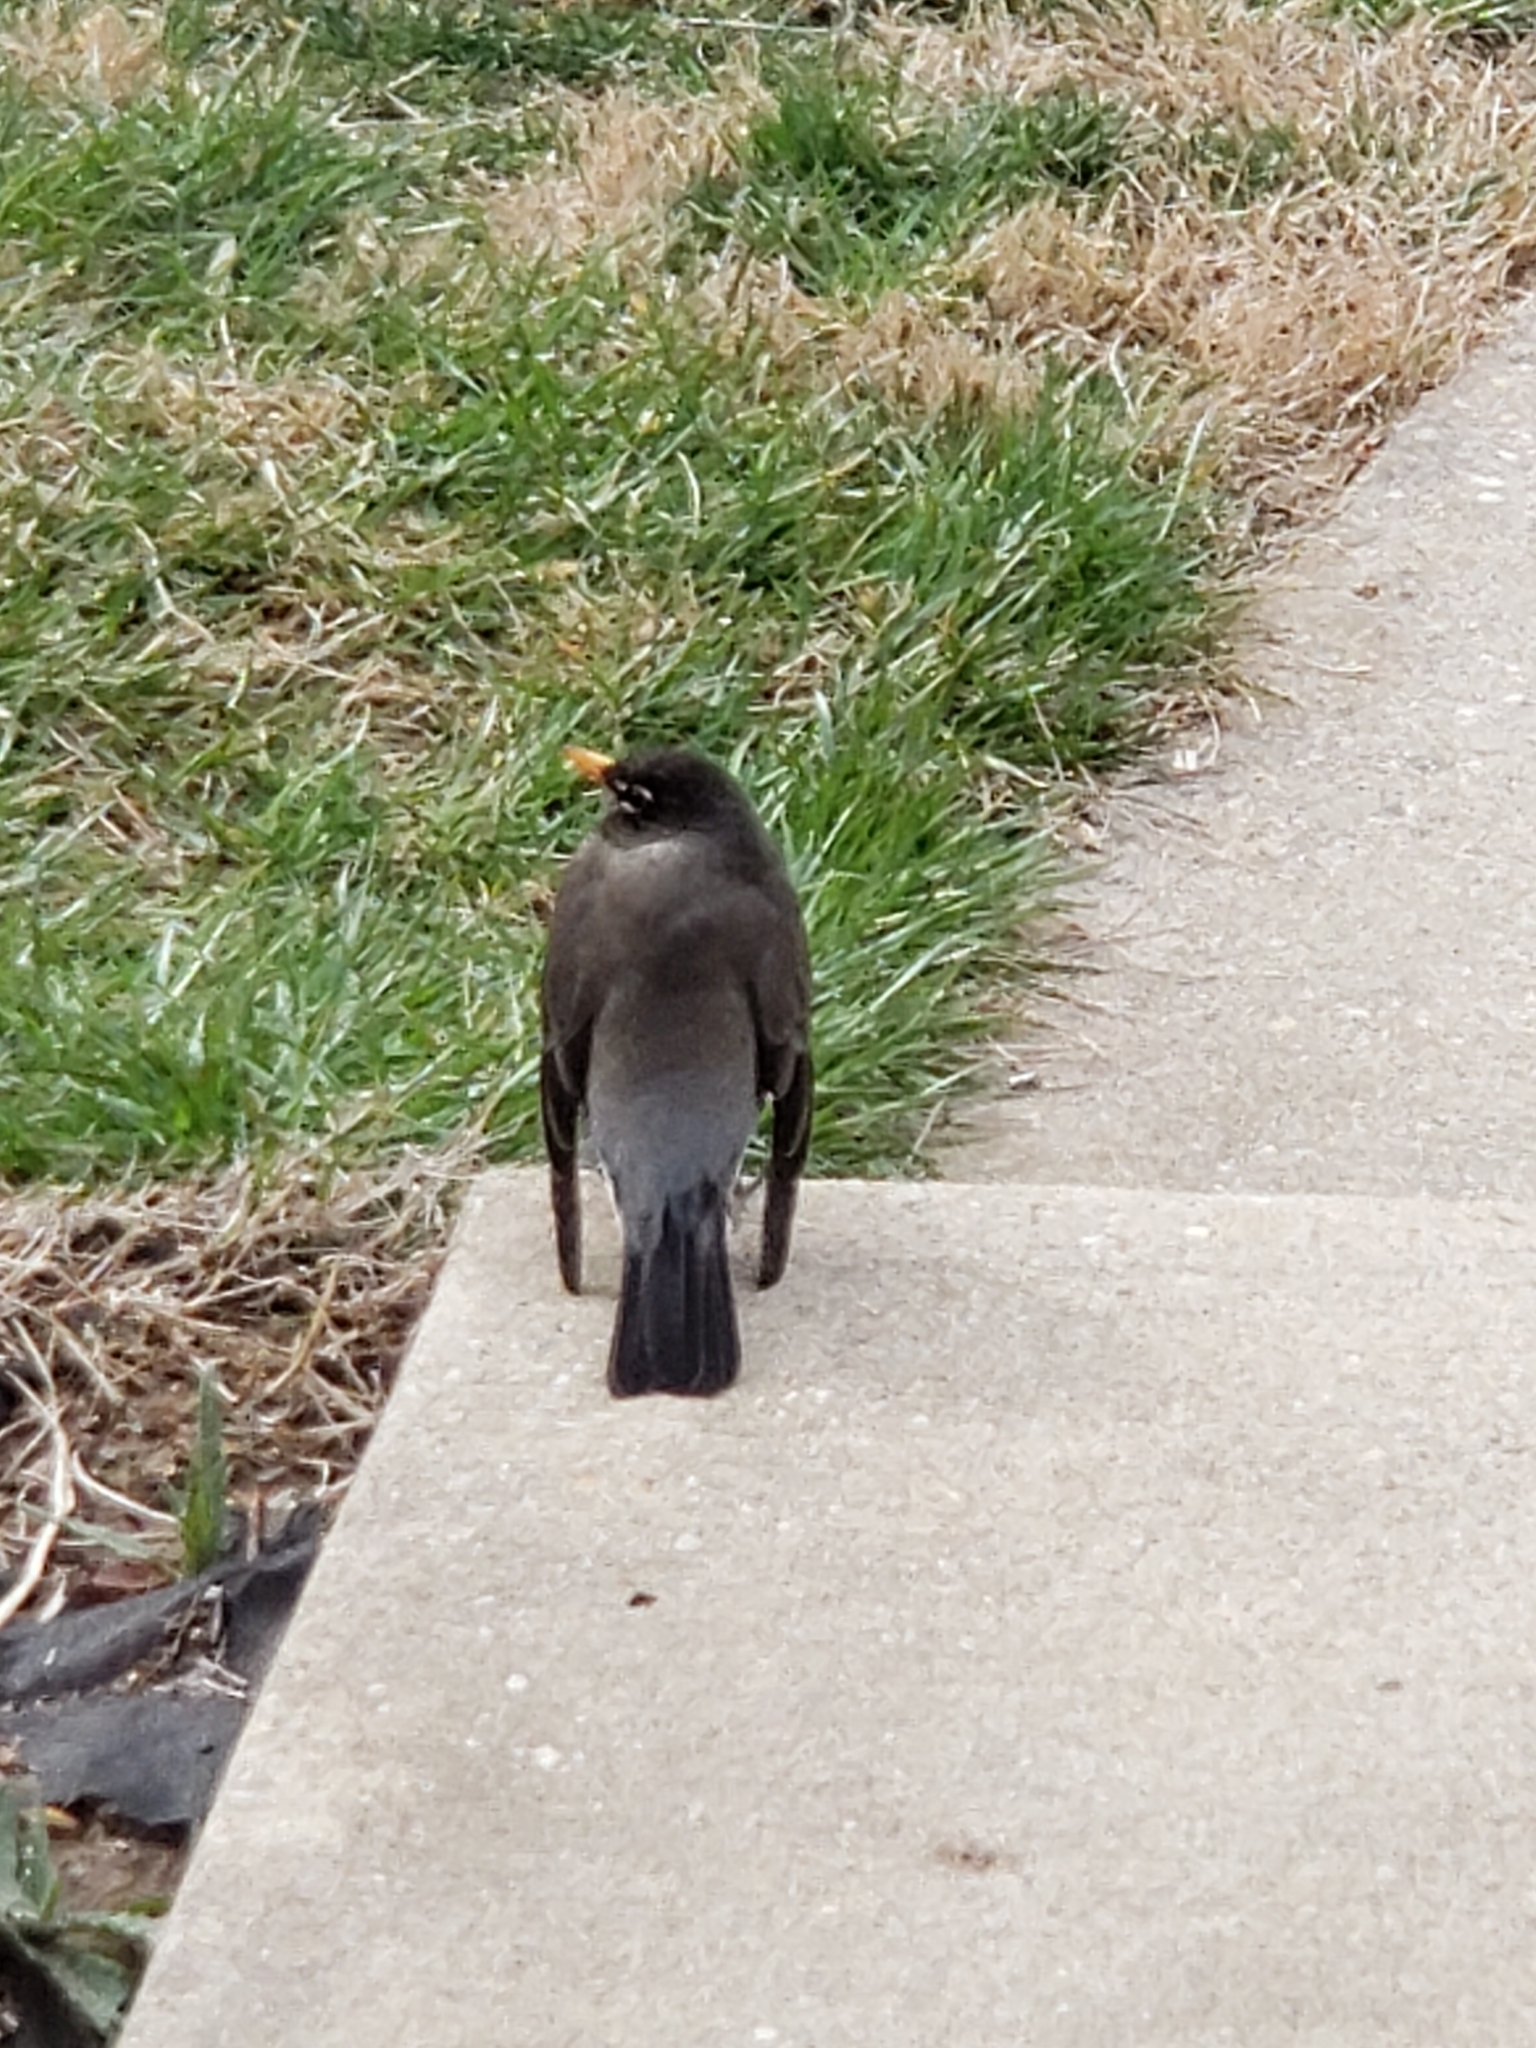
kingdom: Animalia
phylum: Chordata
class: Aves
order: Passeriformes
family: Turdidae
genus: Turdus
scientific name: Turdus migratorius
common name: American robin
